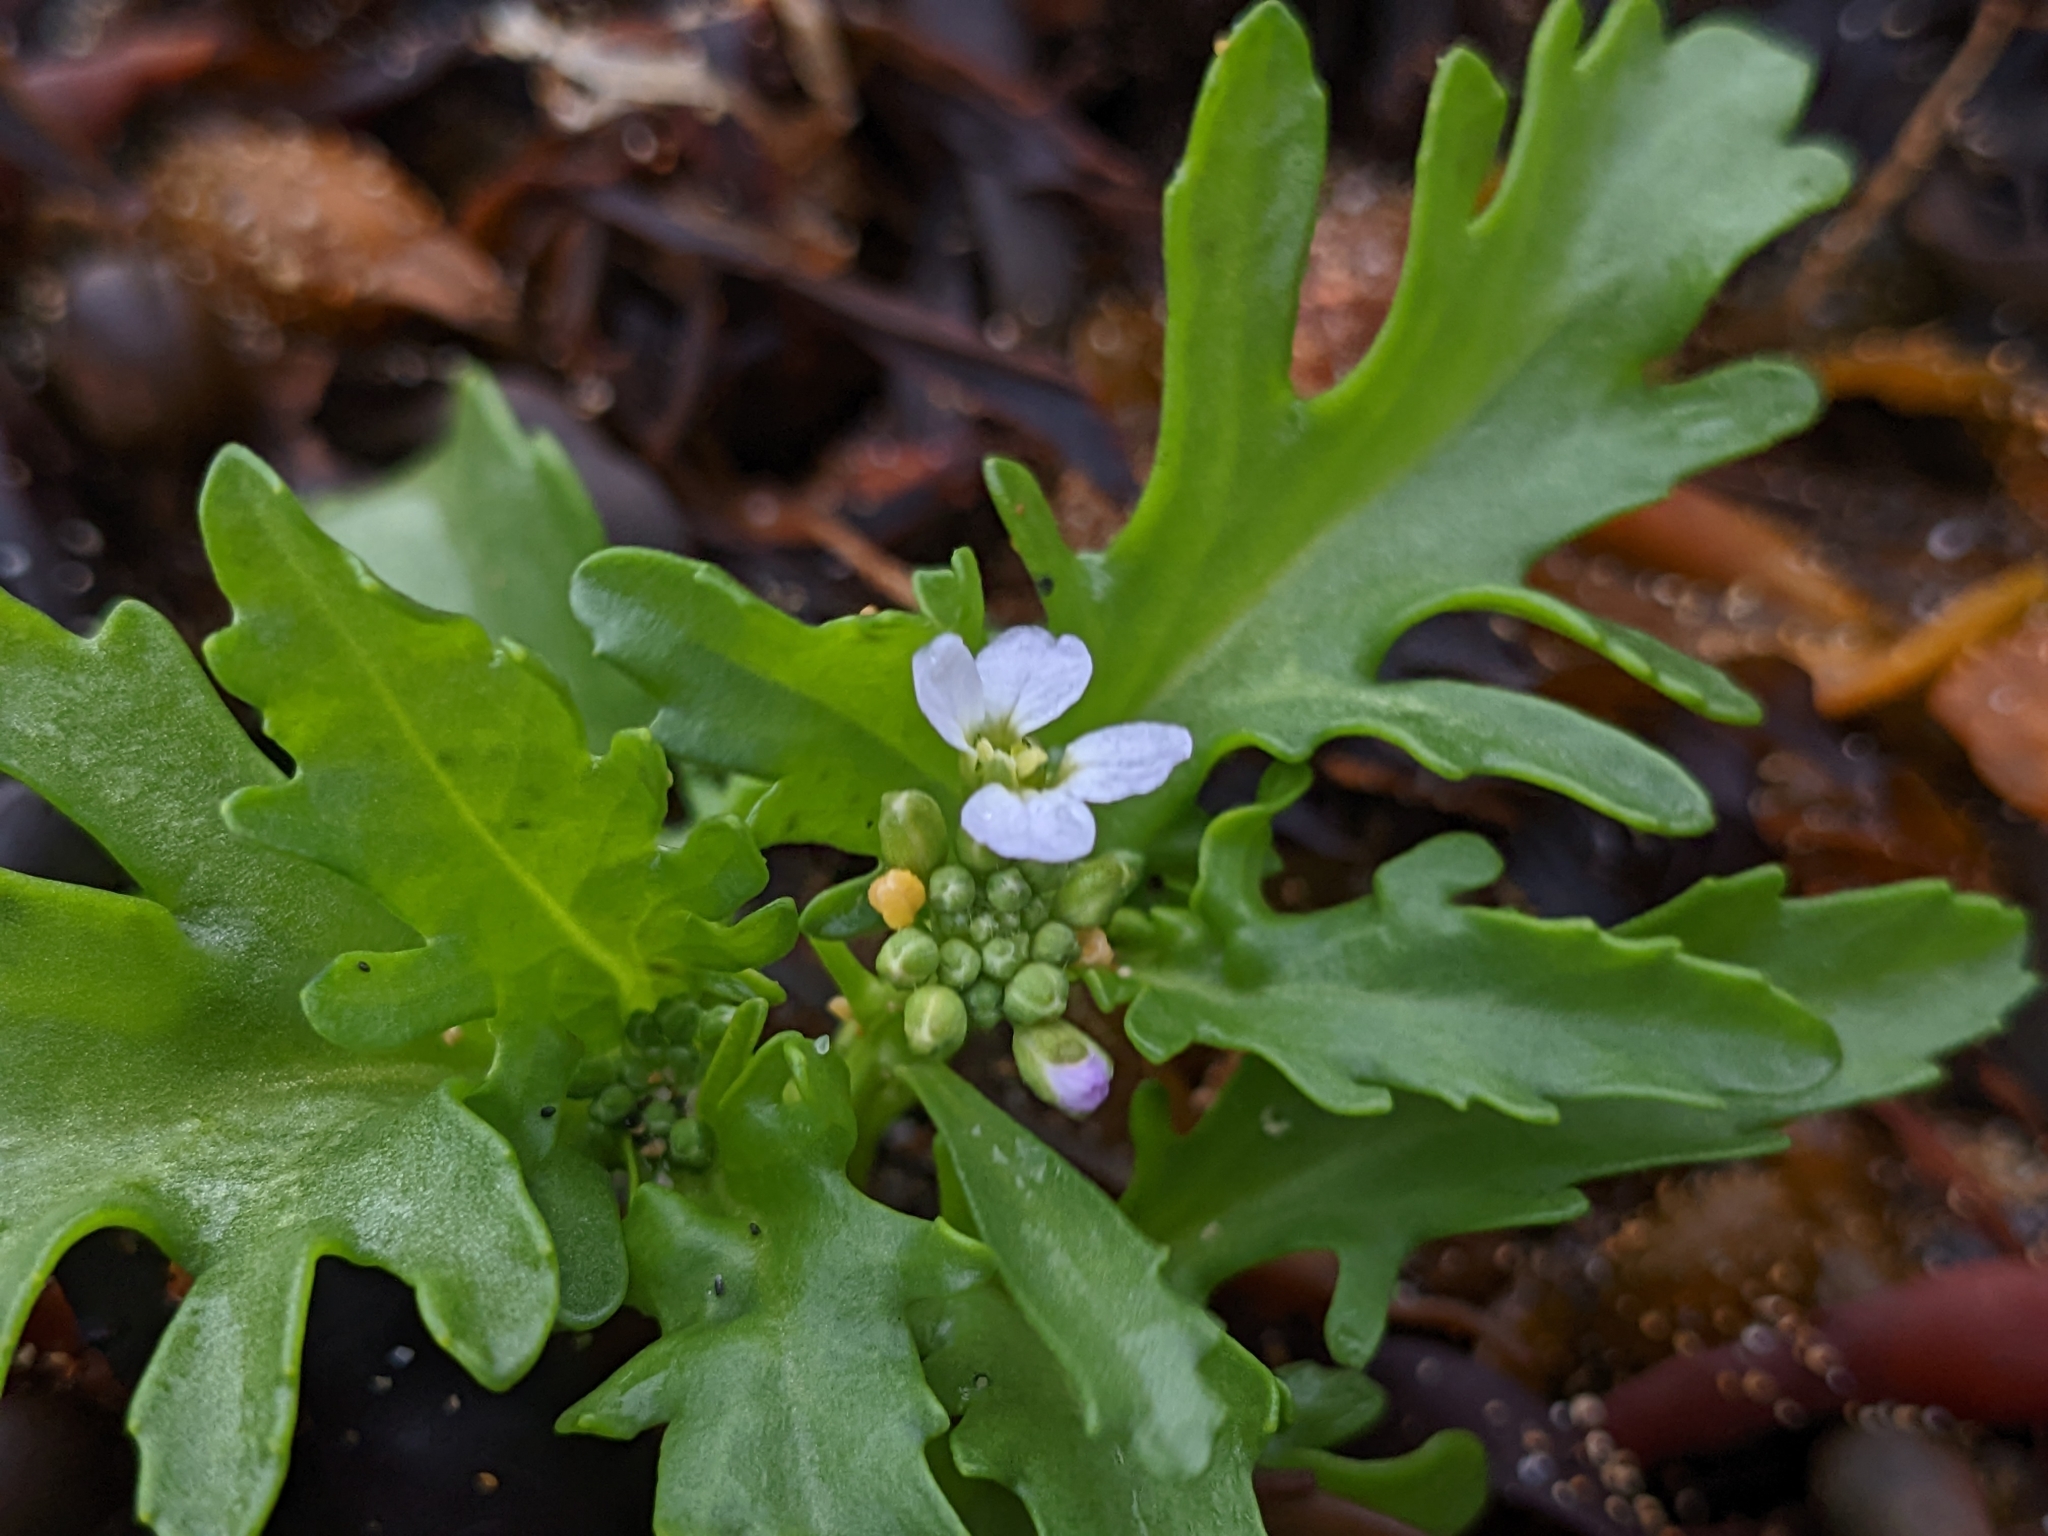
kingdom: Plantae
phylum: Tracheophyta
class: Magnoliopsida
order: Brassicales
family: Brassicaceae
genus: Cakile
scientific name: Cakile arctica
